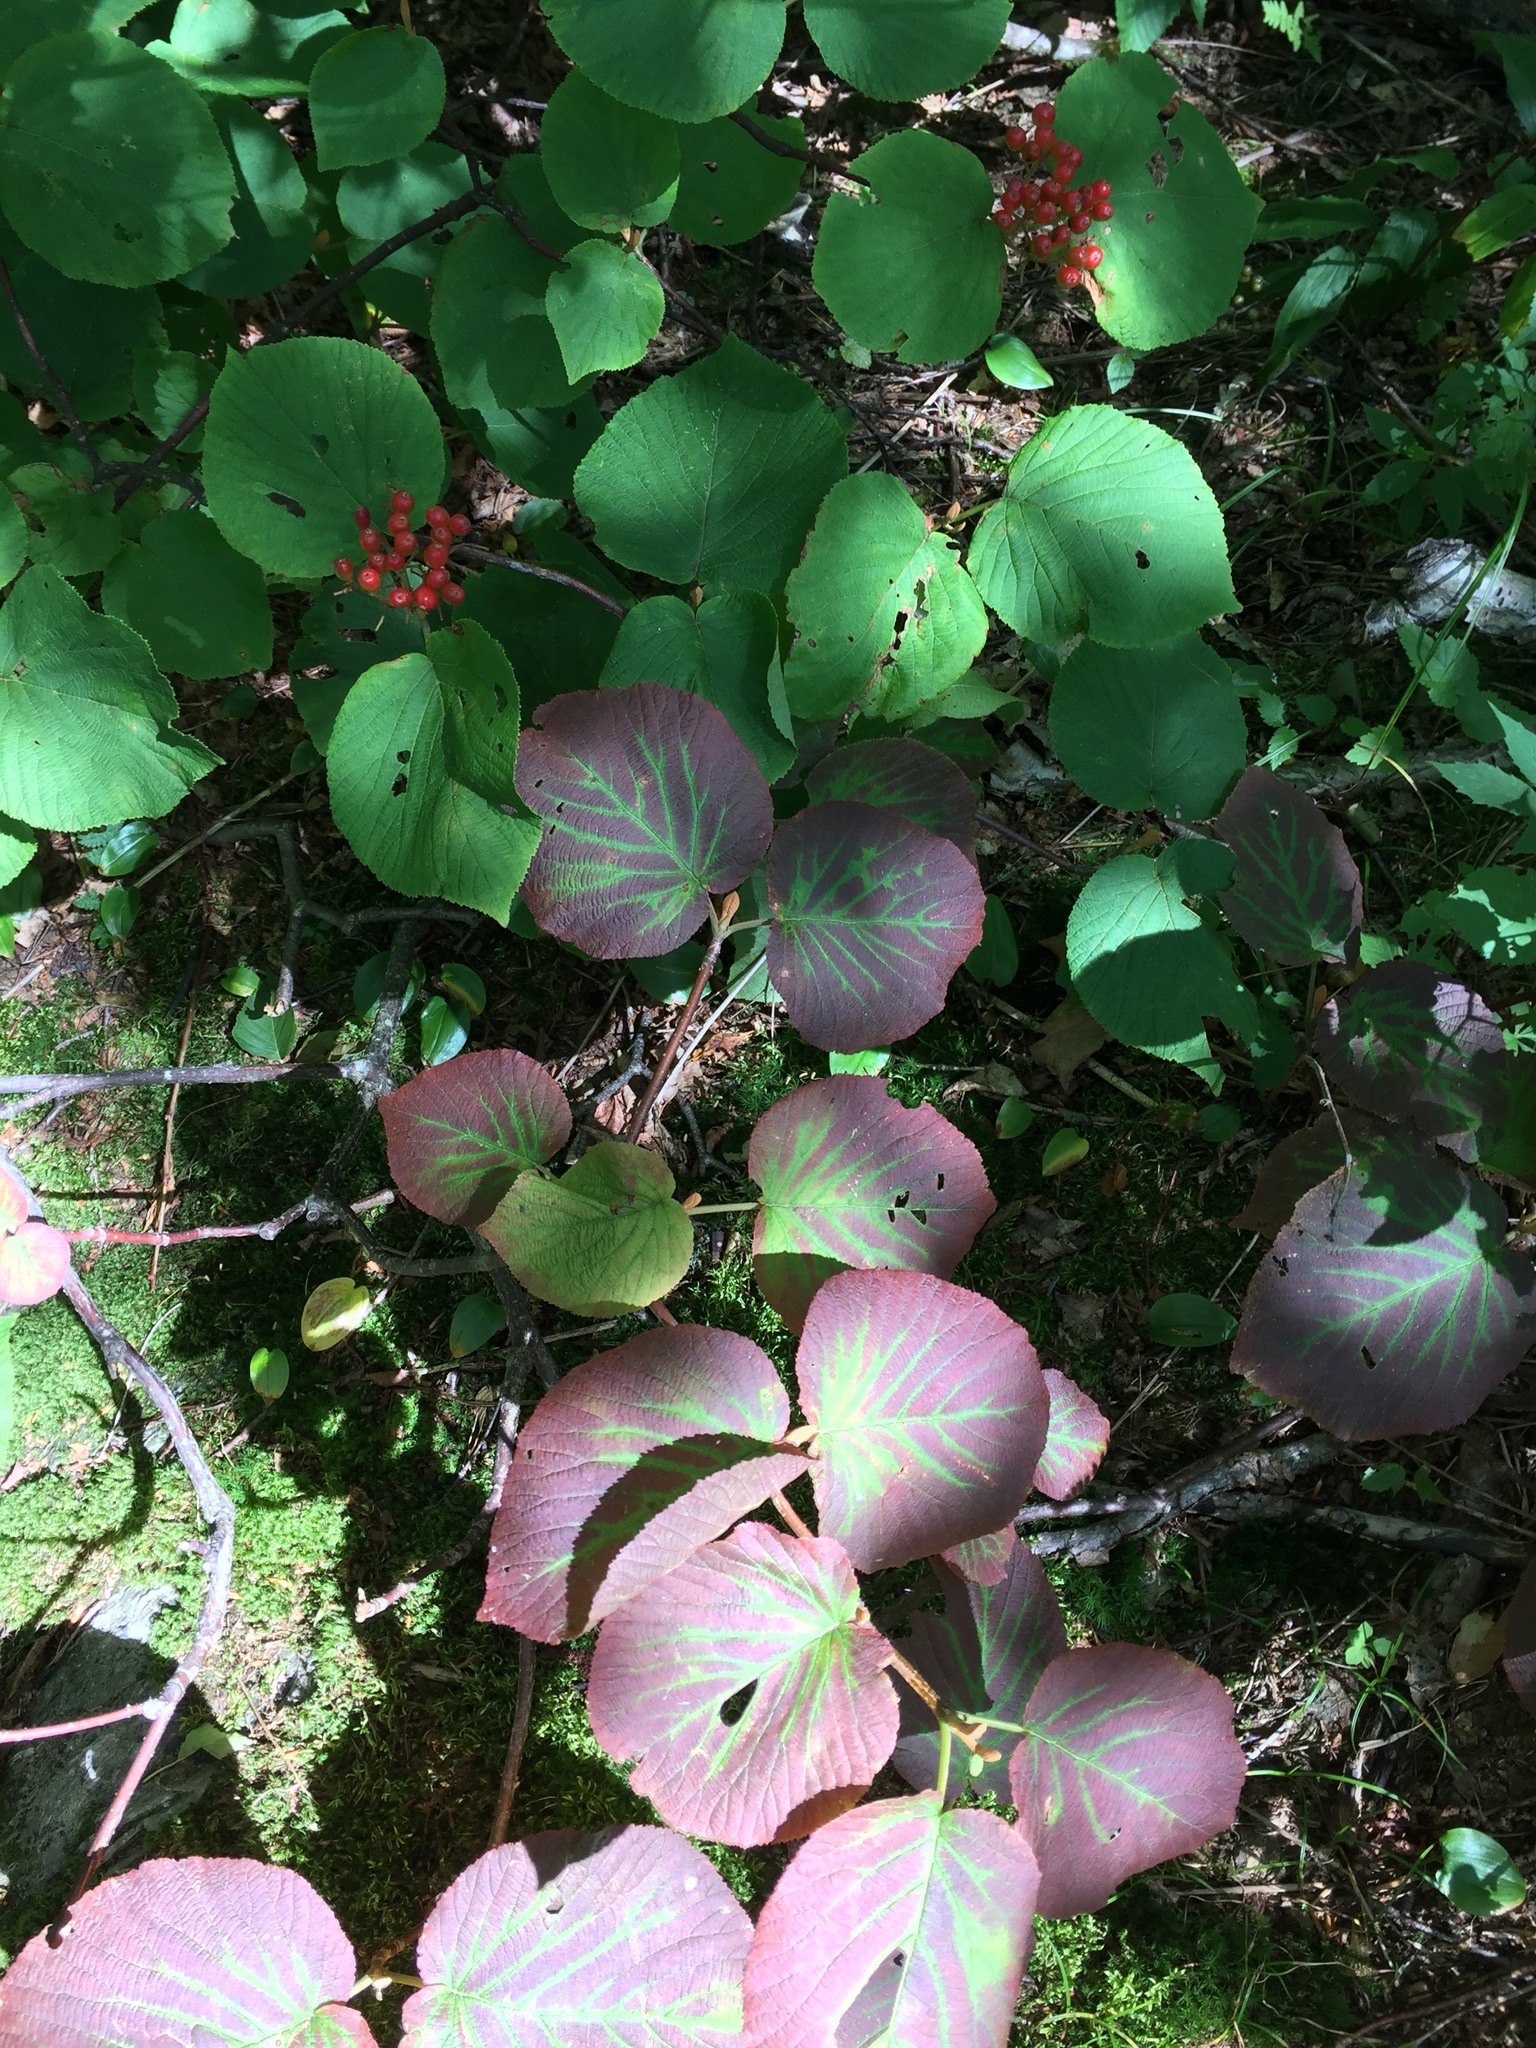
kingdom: Plantae
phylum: Tracheophyta
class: Magnoliopsida
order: Dipsacales
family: Viburnaceae
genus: Viburnum
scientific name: Viburnum lantanoides
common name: Hobblebush
